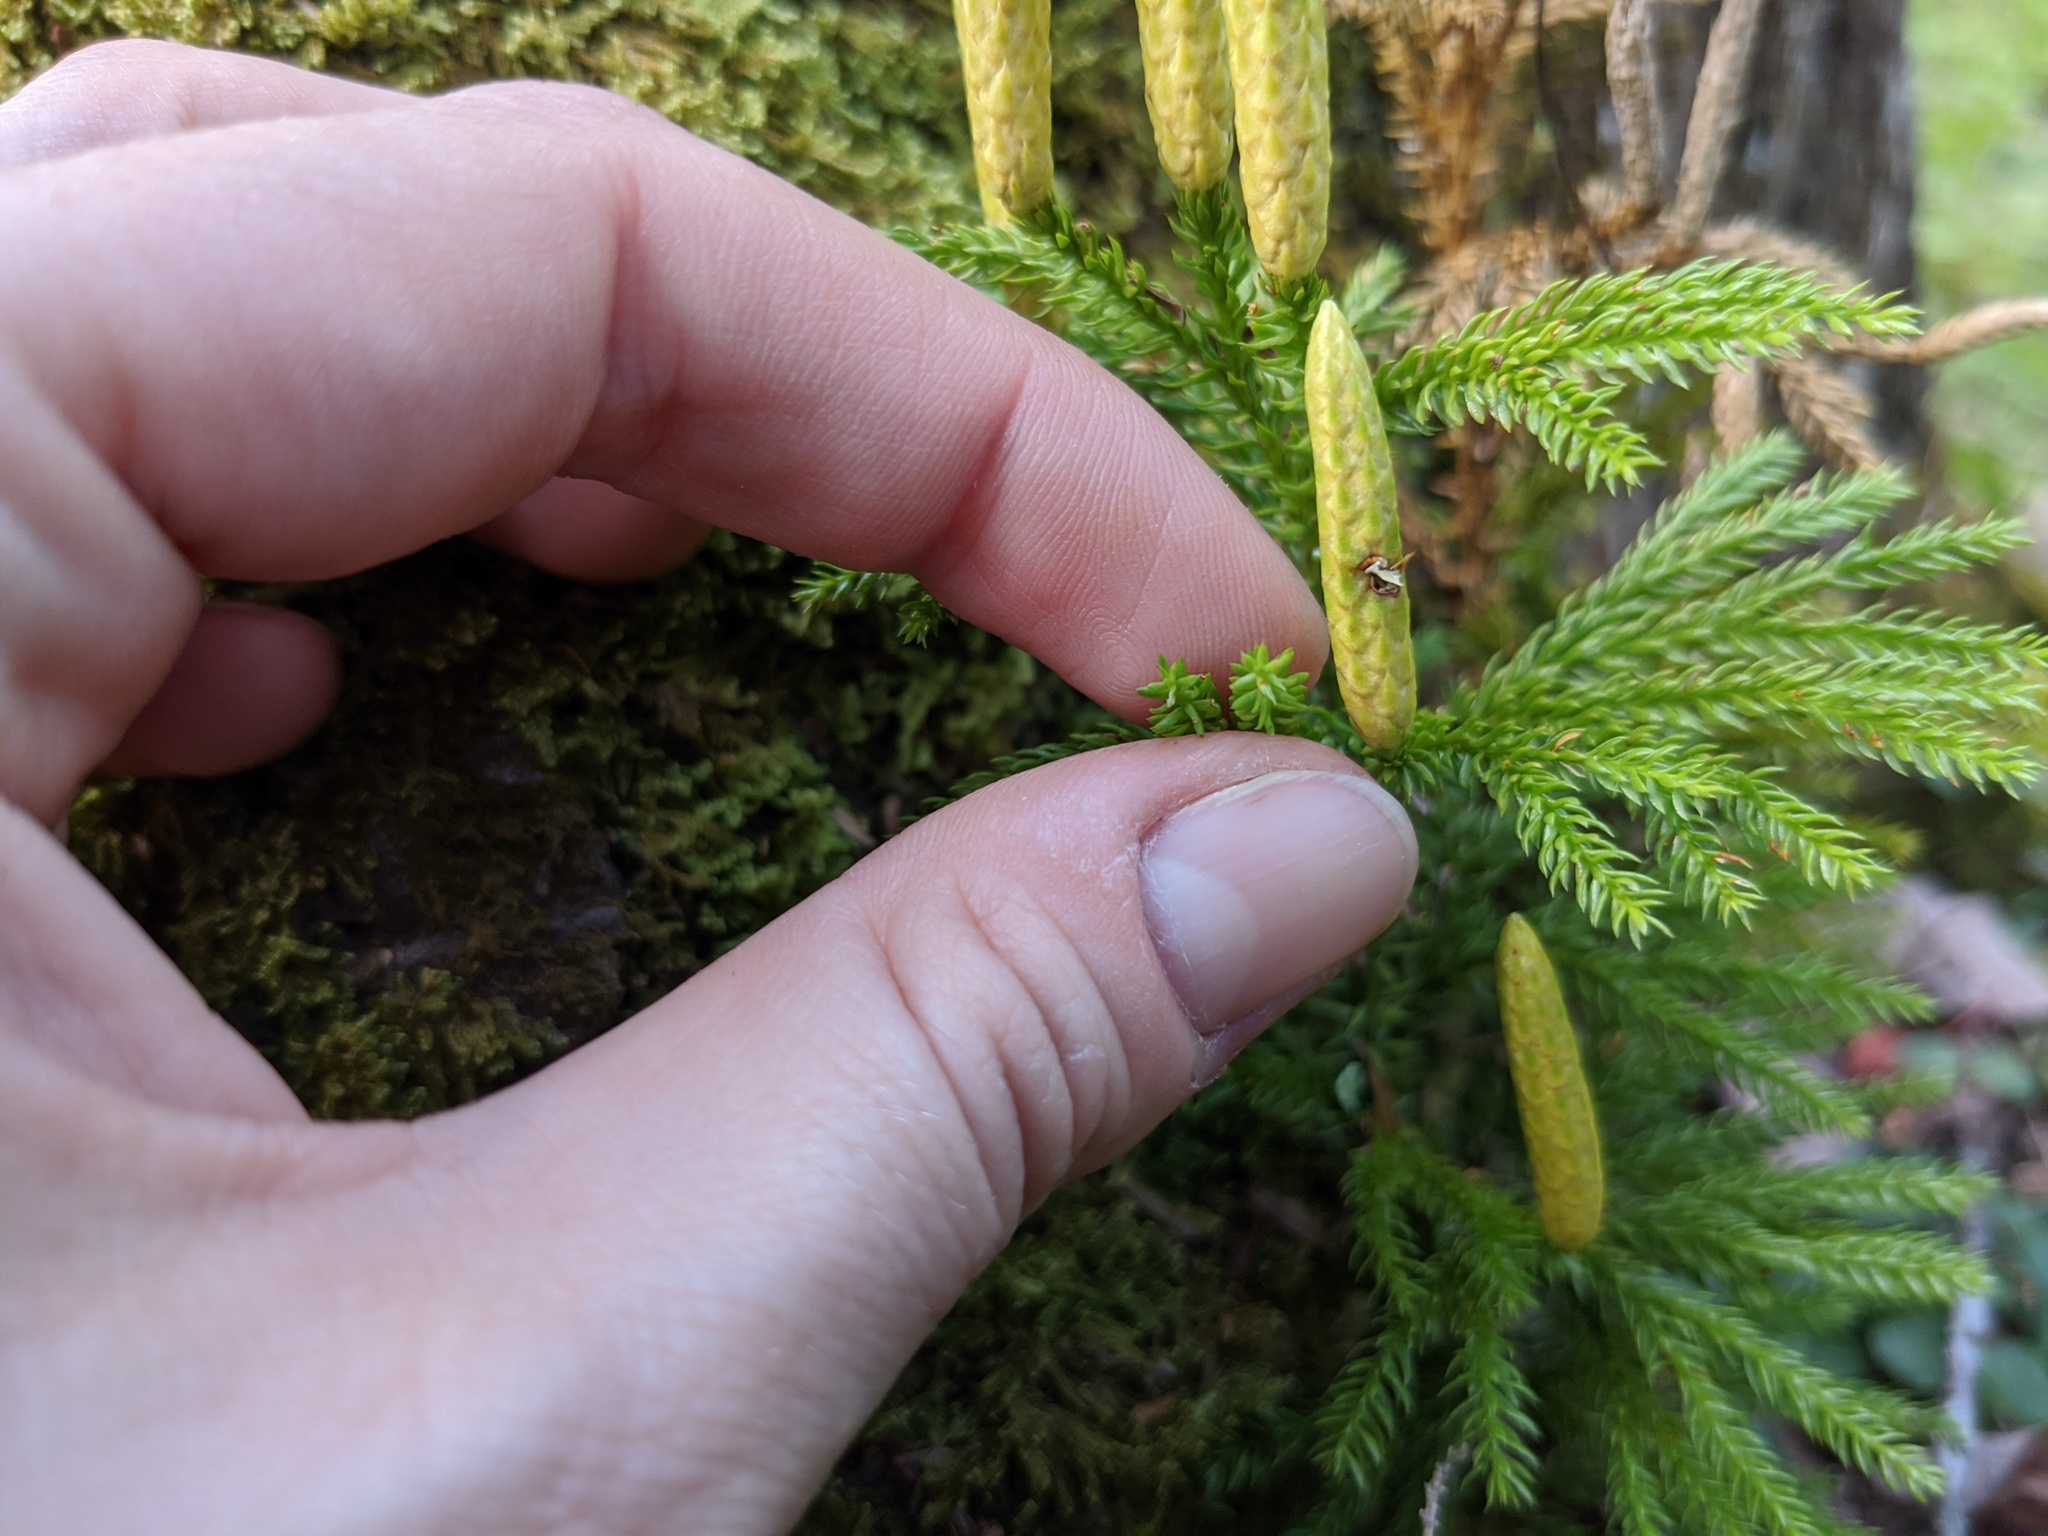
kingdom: Plantae
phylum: Tracheophyta
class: Lycopodiopsida
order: Lycopodiales
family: Lycopodiaceae
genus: Dendrolycopodium
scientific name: Dendrolycopodium dendroideum
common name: Northern tree-clubmoss
